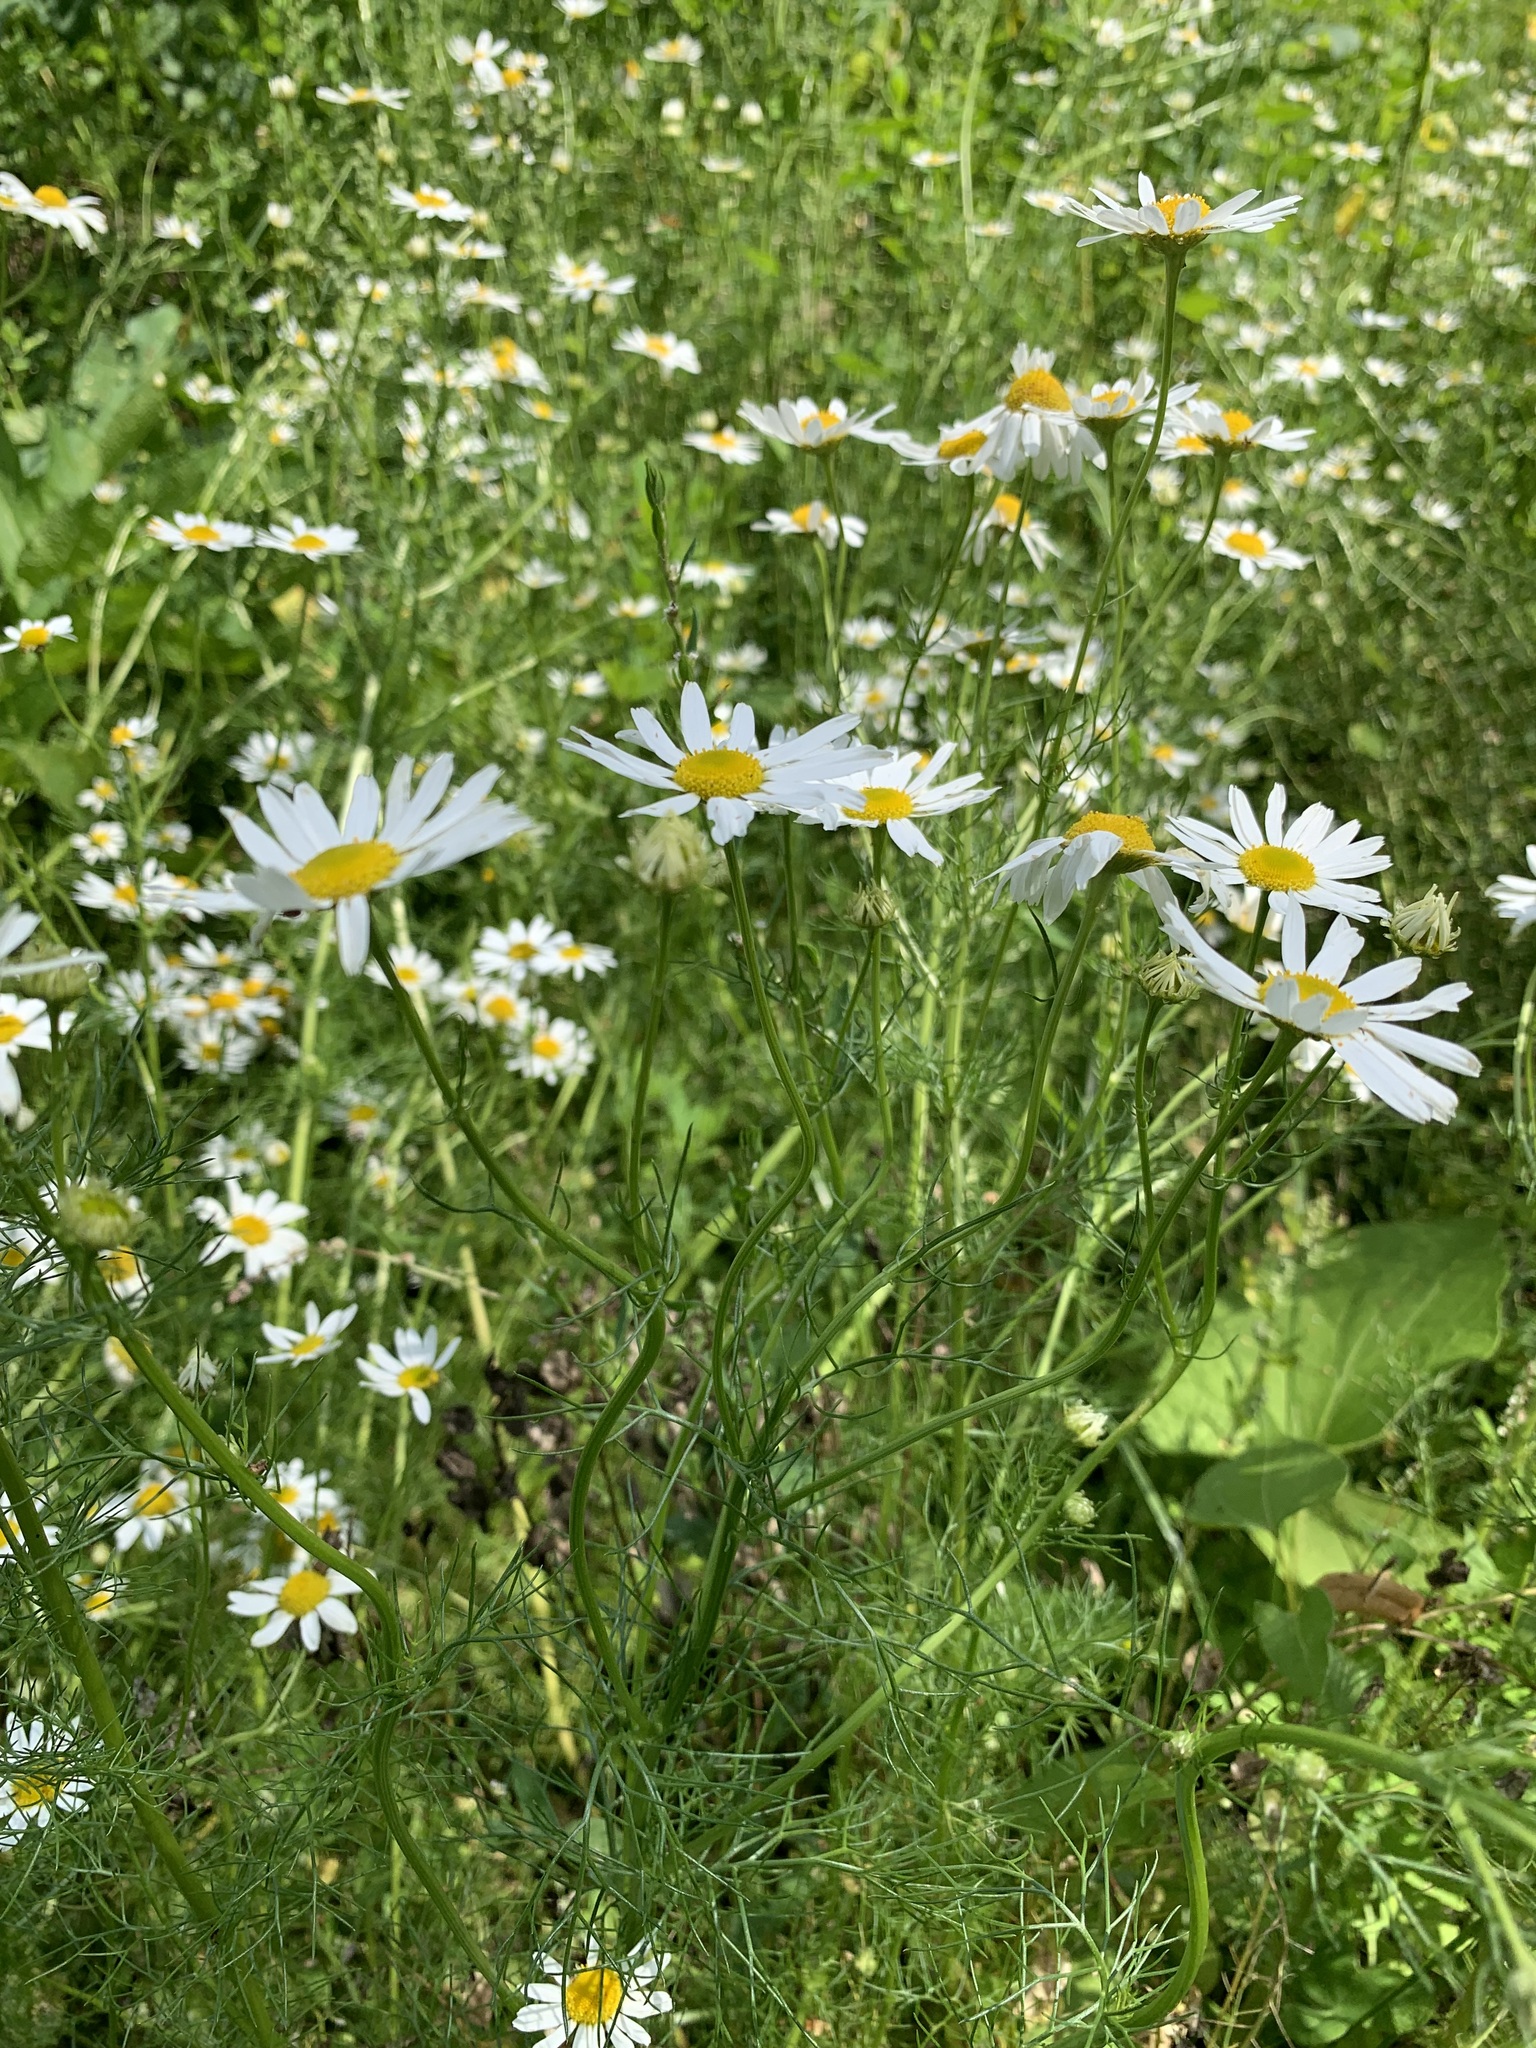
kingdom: Plantae
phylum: Tracheophyta
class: Magnoliopsida
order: Asterales
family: Asteraceae
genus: Tripleurospermum
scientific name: Tripleurospermum inodorum
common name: Scentless mayweed
